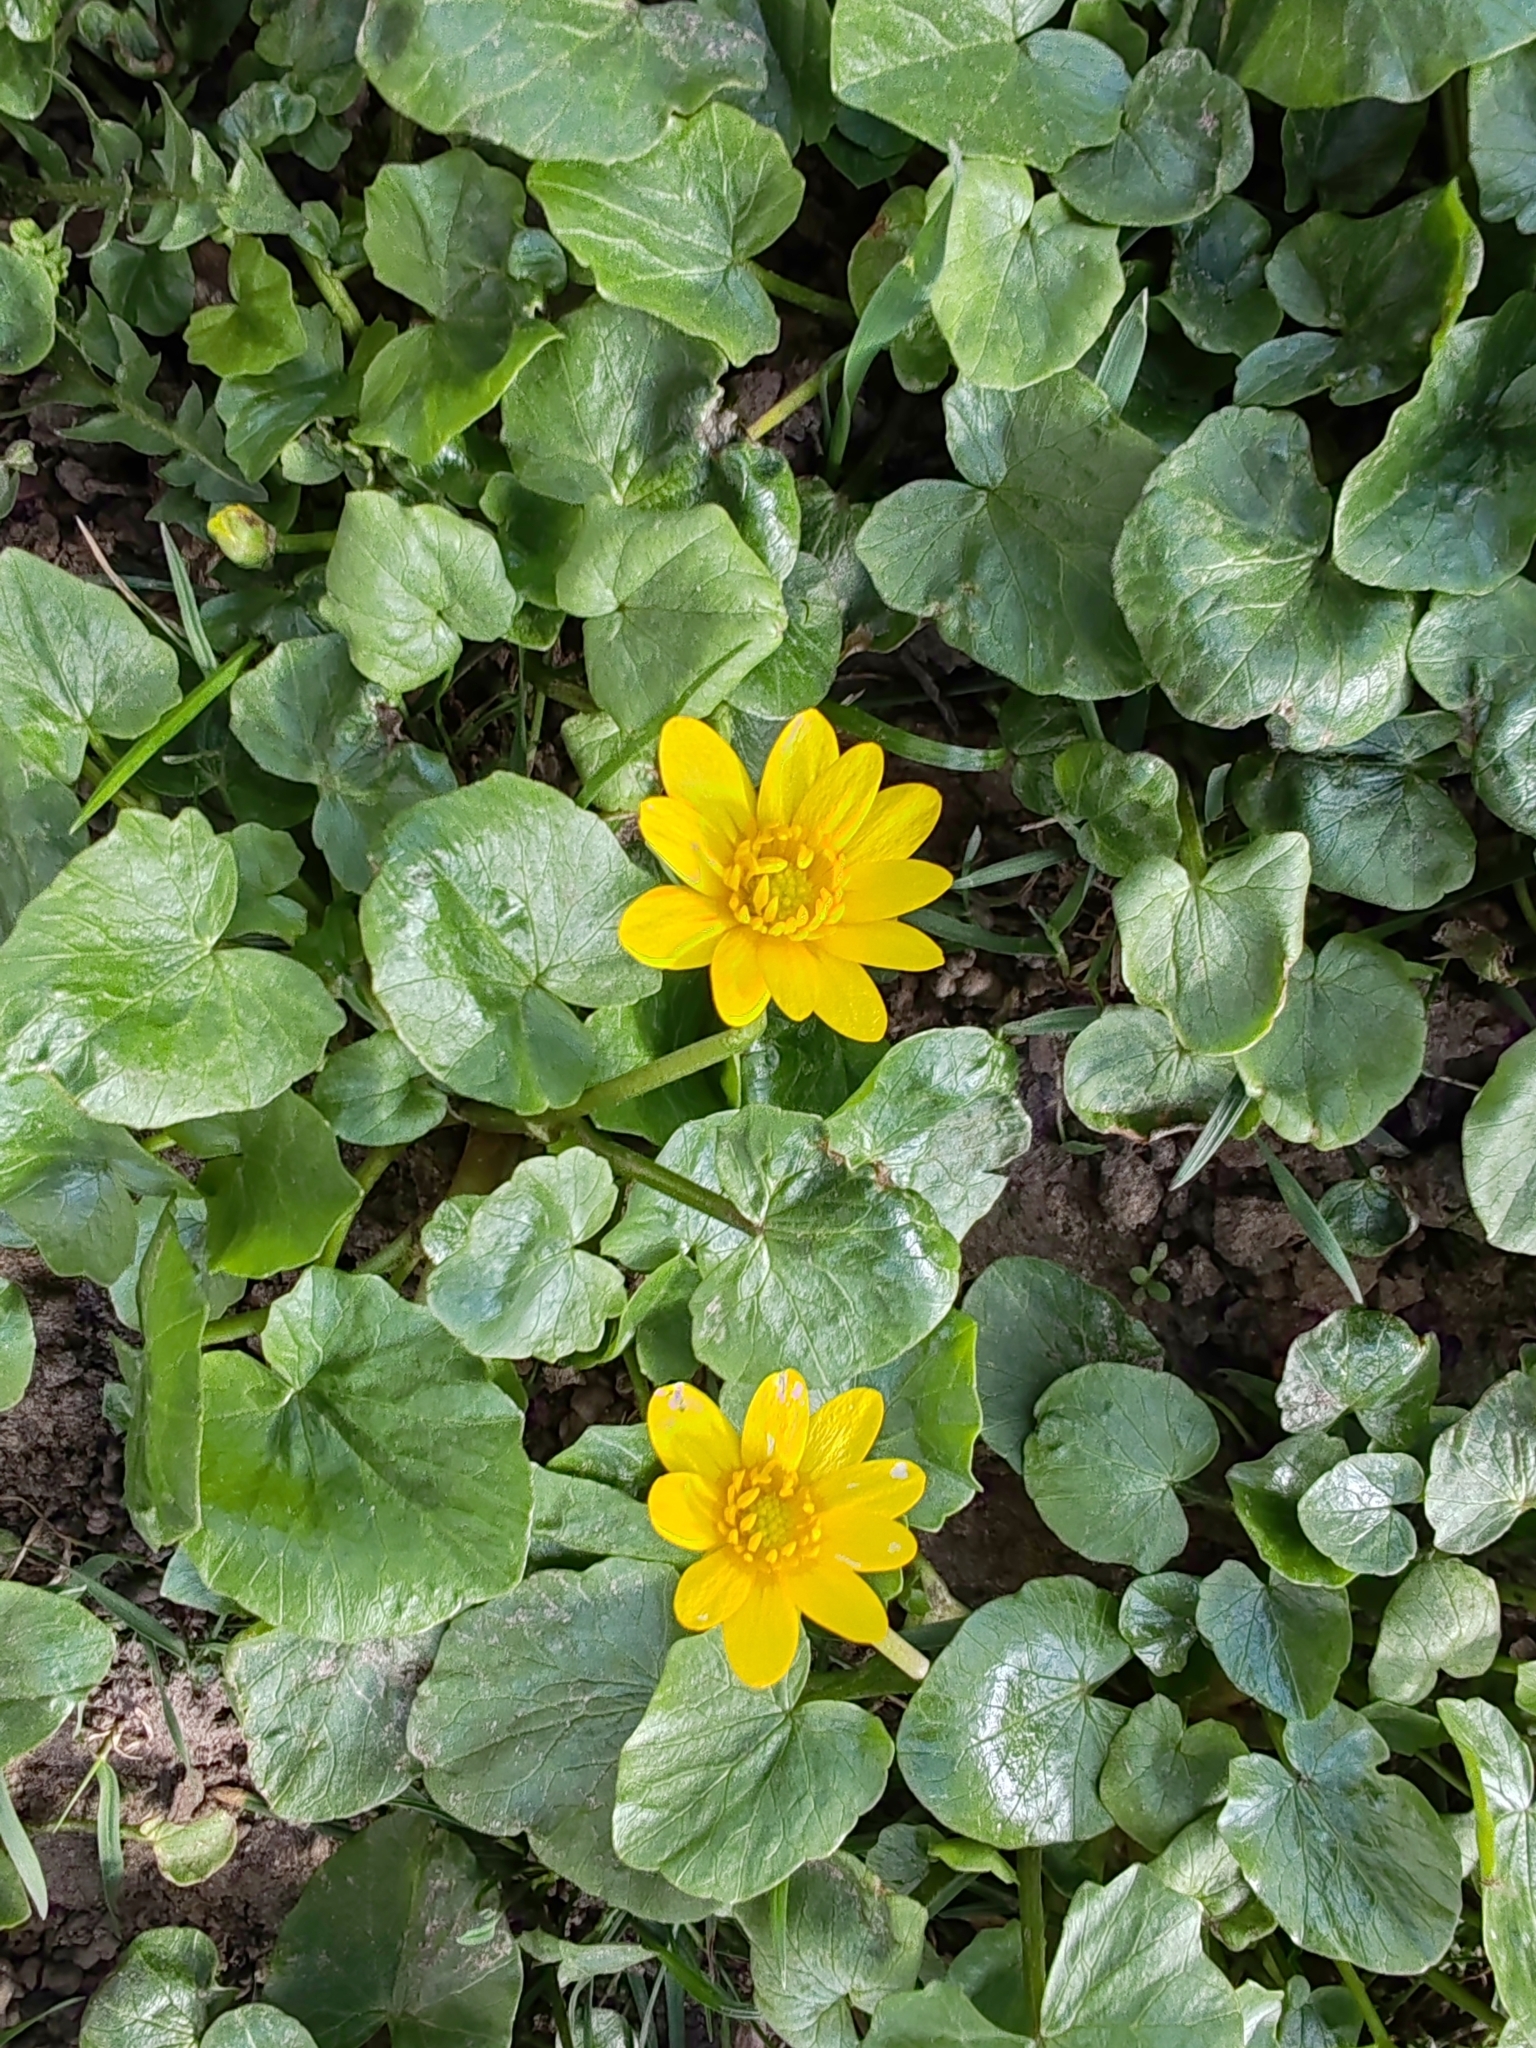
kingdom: Plantae
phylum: Tracheophyta
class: Magnoliopsida
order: Ranunculales
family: Ranunculaceae
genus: Ficaria
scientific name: Ficaria verna
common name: Lesser celandine
